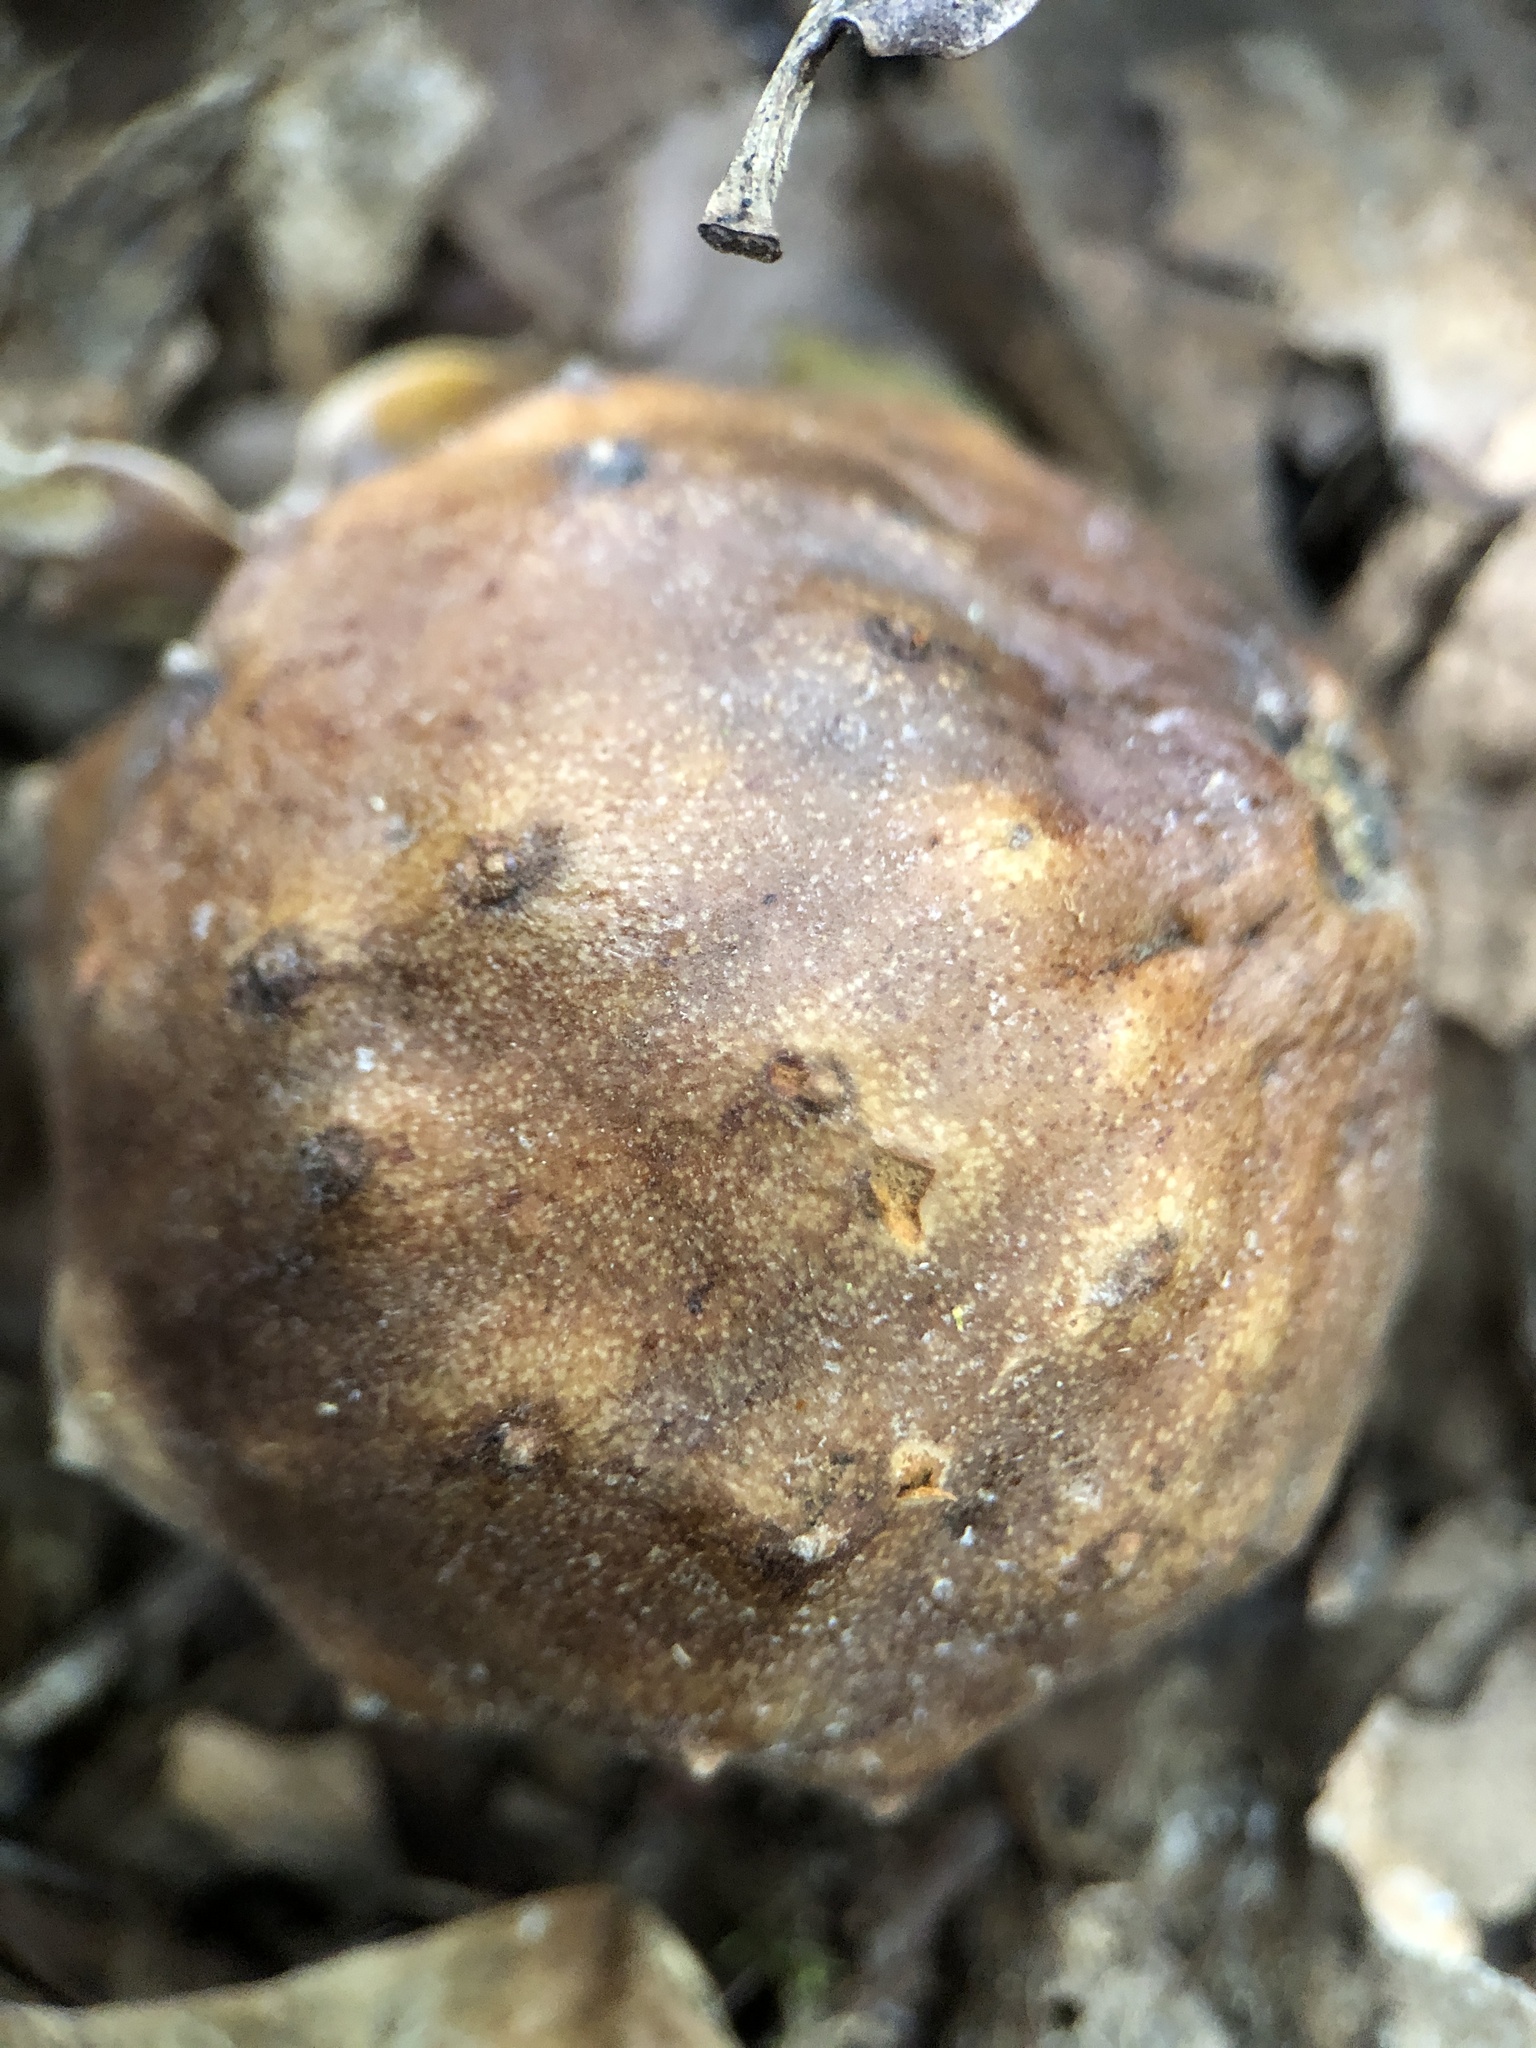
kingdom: Animalia
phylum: Arthropoda
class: Insecta
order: Hymenoptera
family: Cynipidae
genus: Andricus
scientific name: Andricus hungaricus
